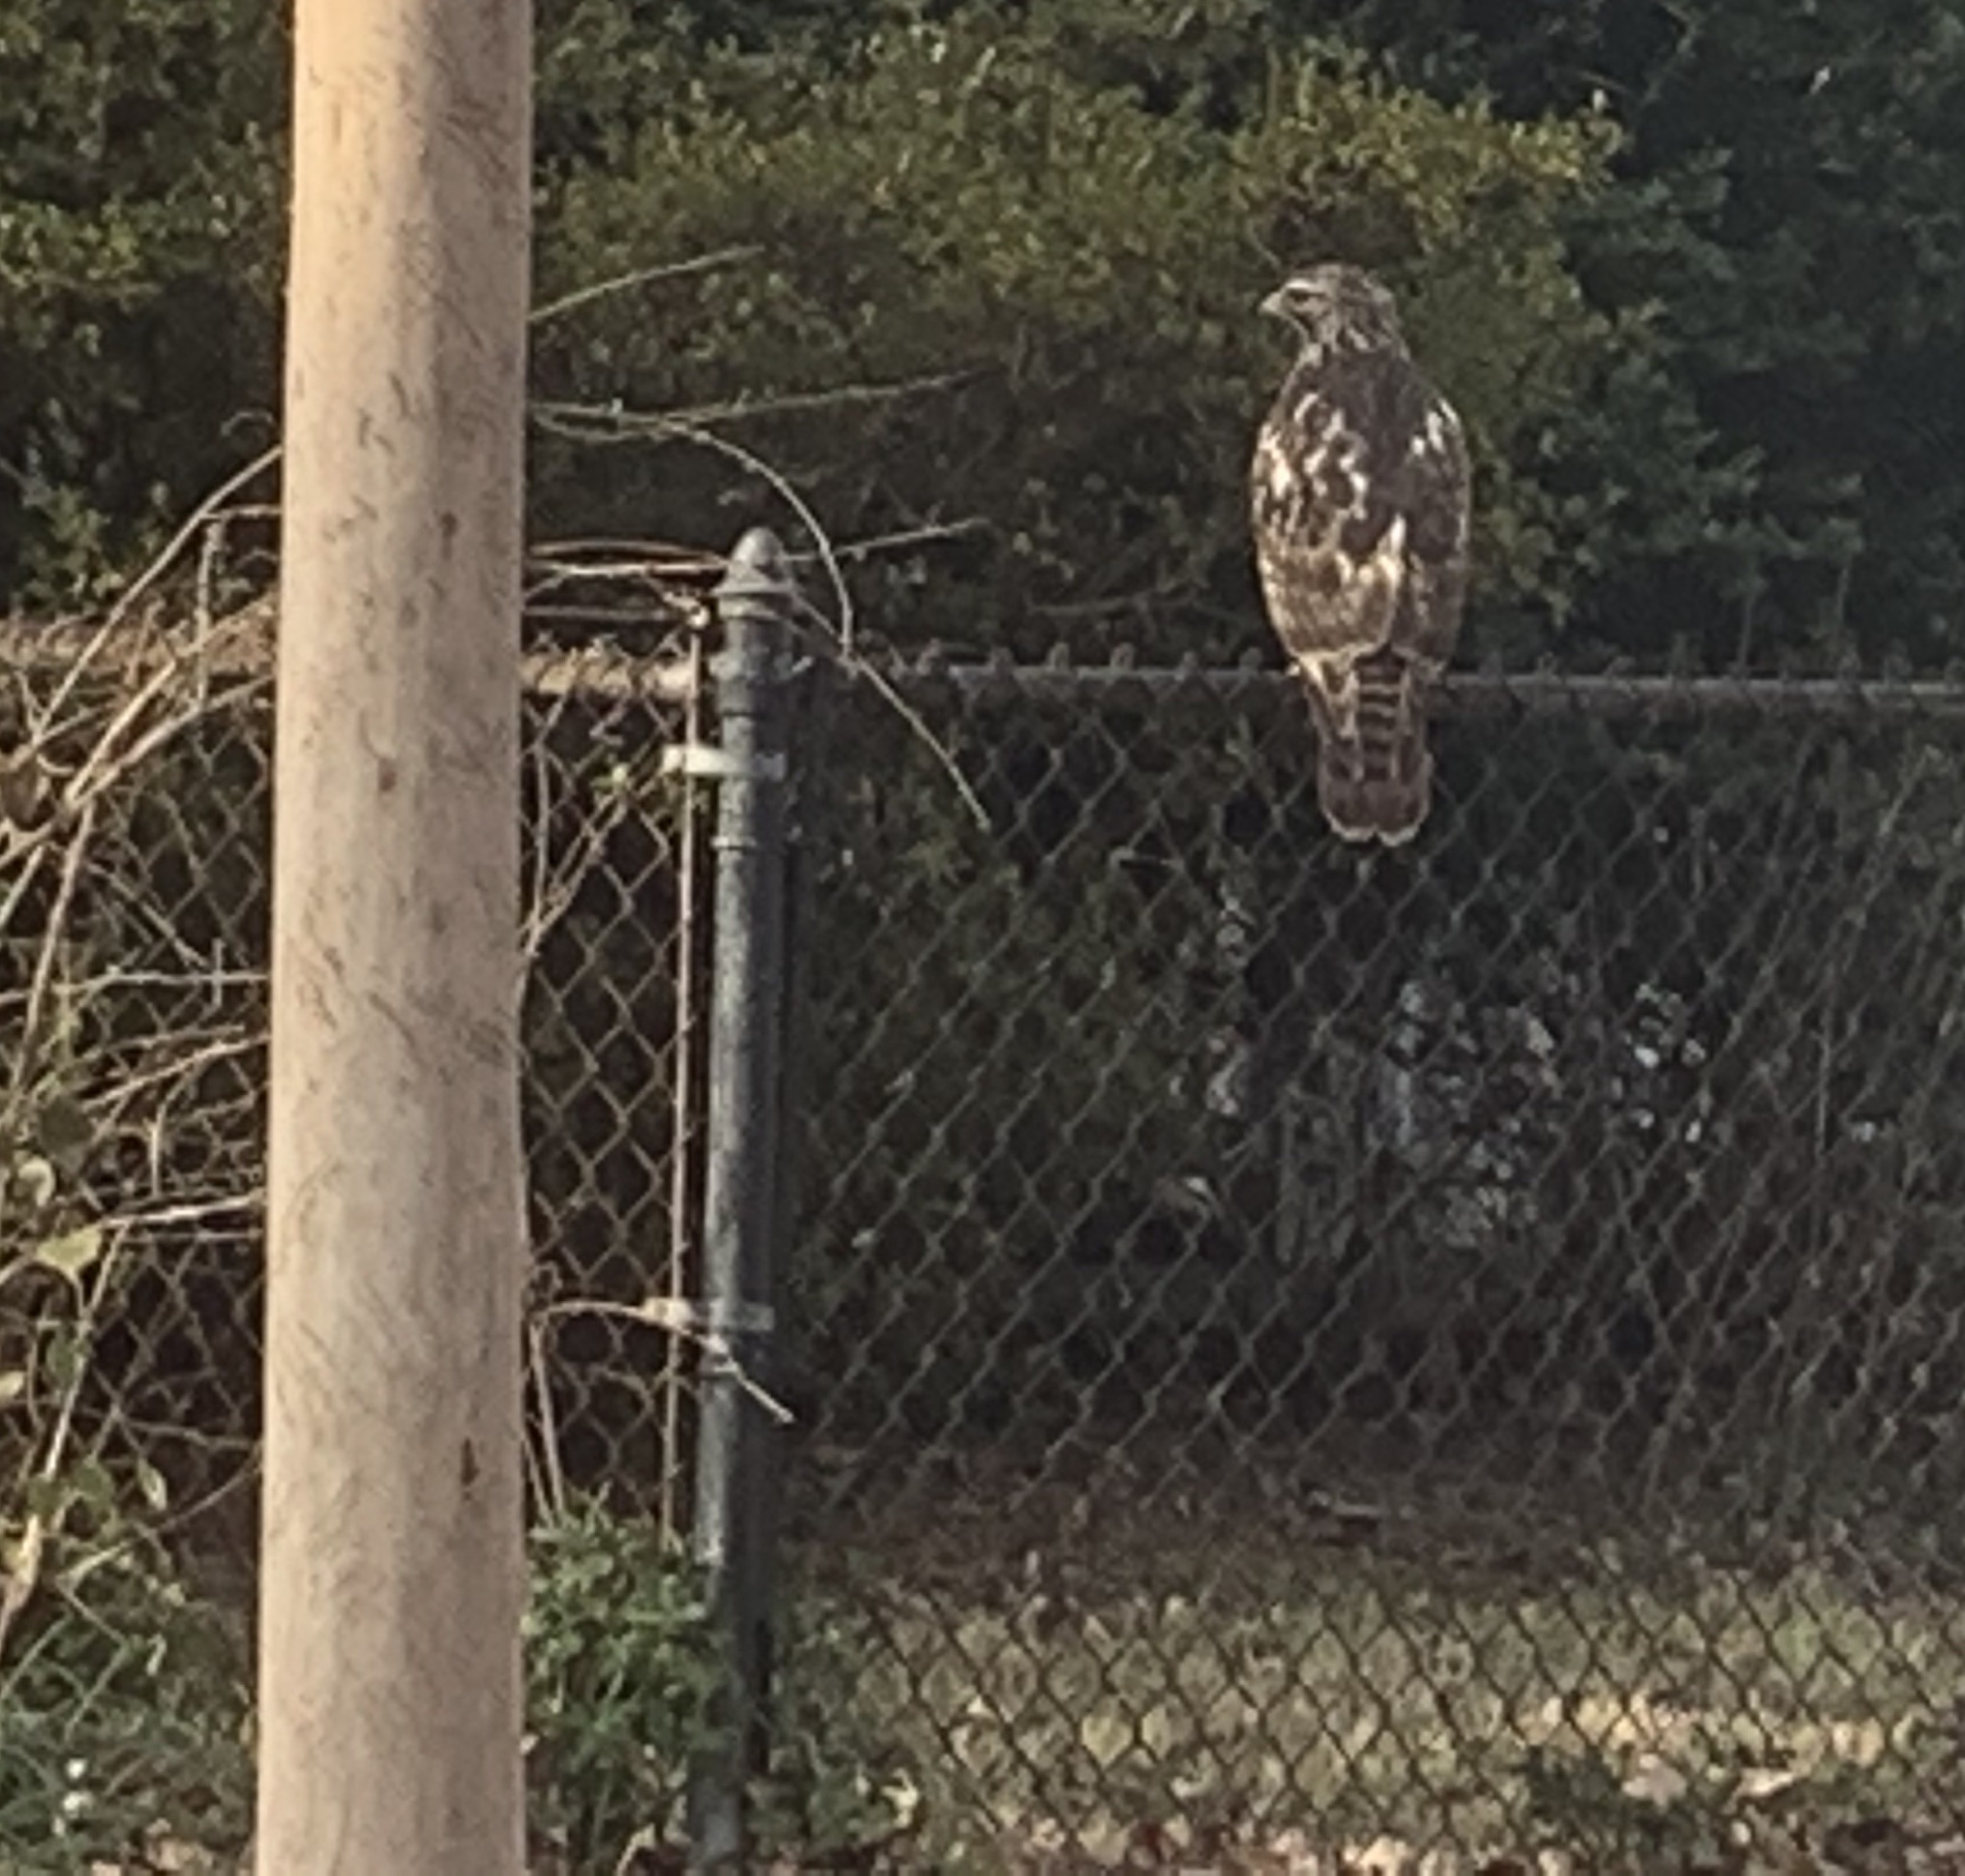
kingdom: Animalia
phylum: Chordata
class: Aves
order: Accipitriformes
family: Accipitridae
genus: Buteo
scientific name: Buteo jamaicensis
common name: Red-tailed hawk
